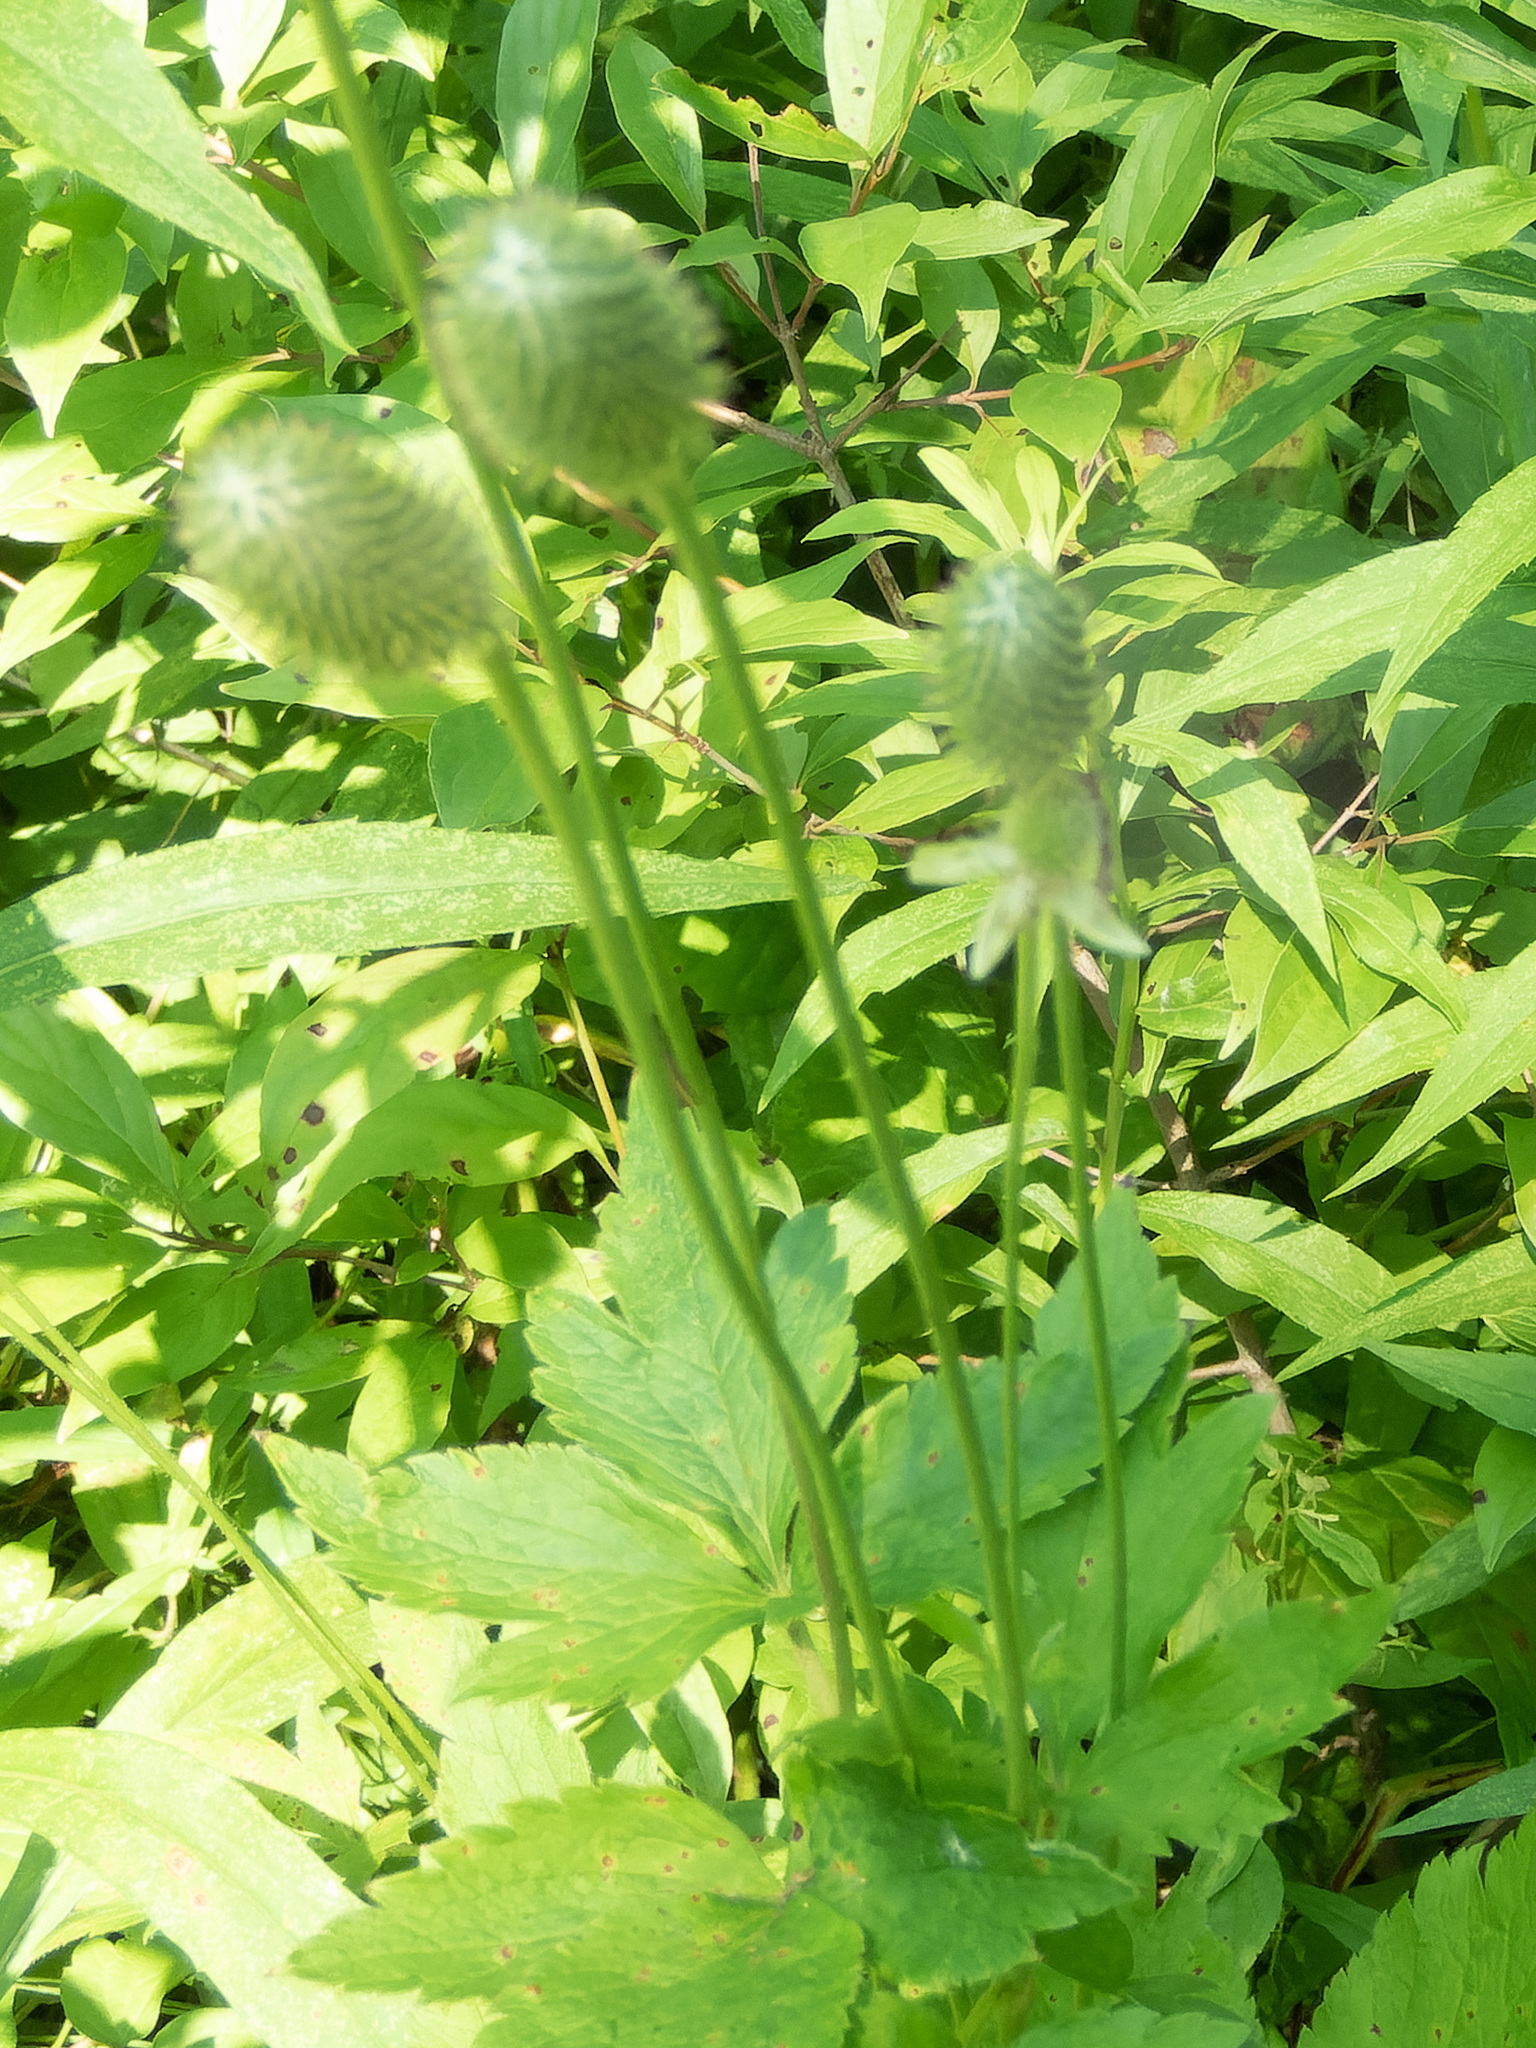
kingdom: Plantae
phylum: Tracheophyta
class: Magnoliopsida
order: Ranunculales
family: Ranunculaceae
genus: Anemone
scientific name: Anemone virginiana
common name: Tall anemone
